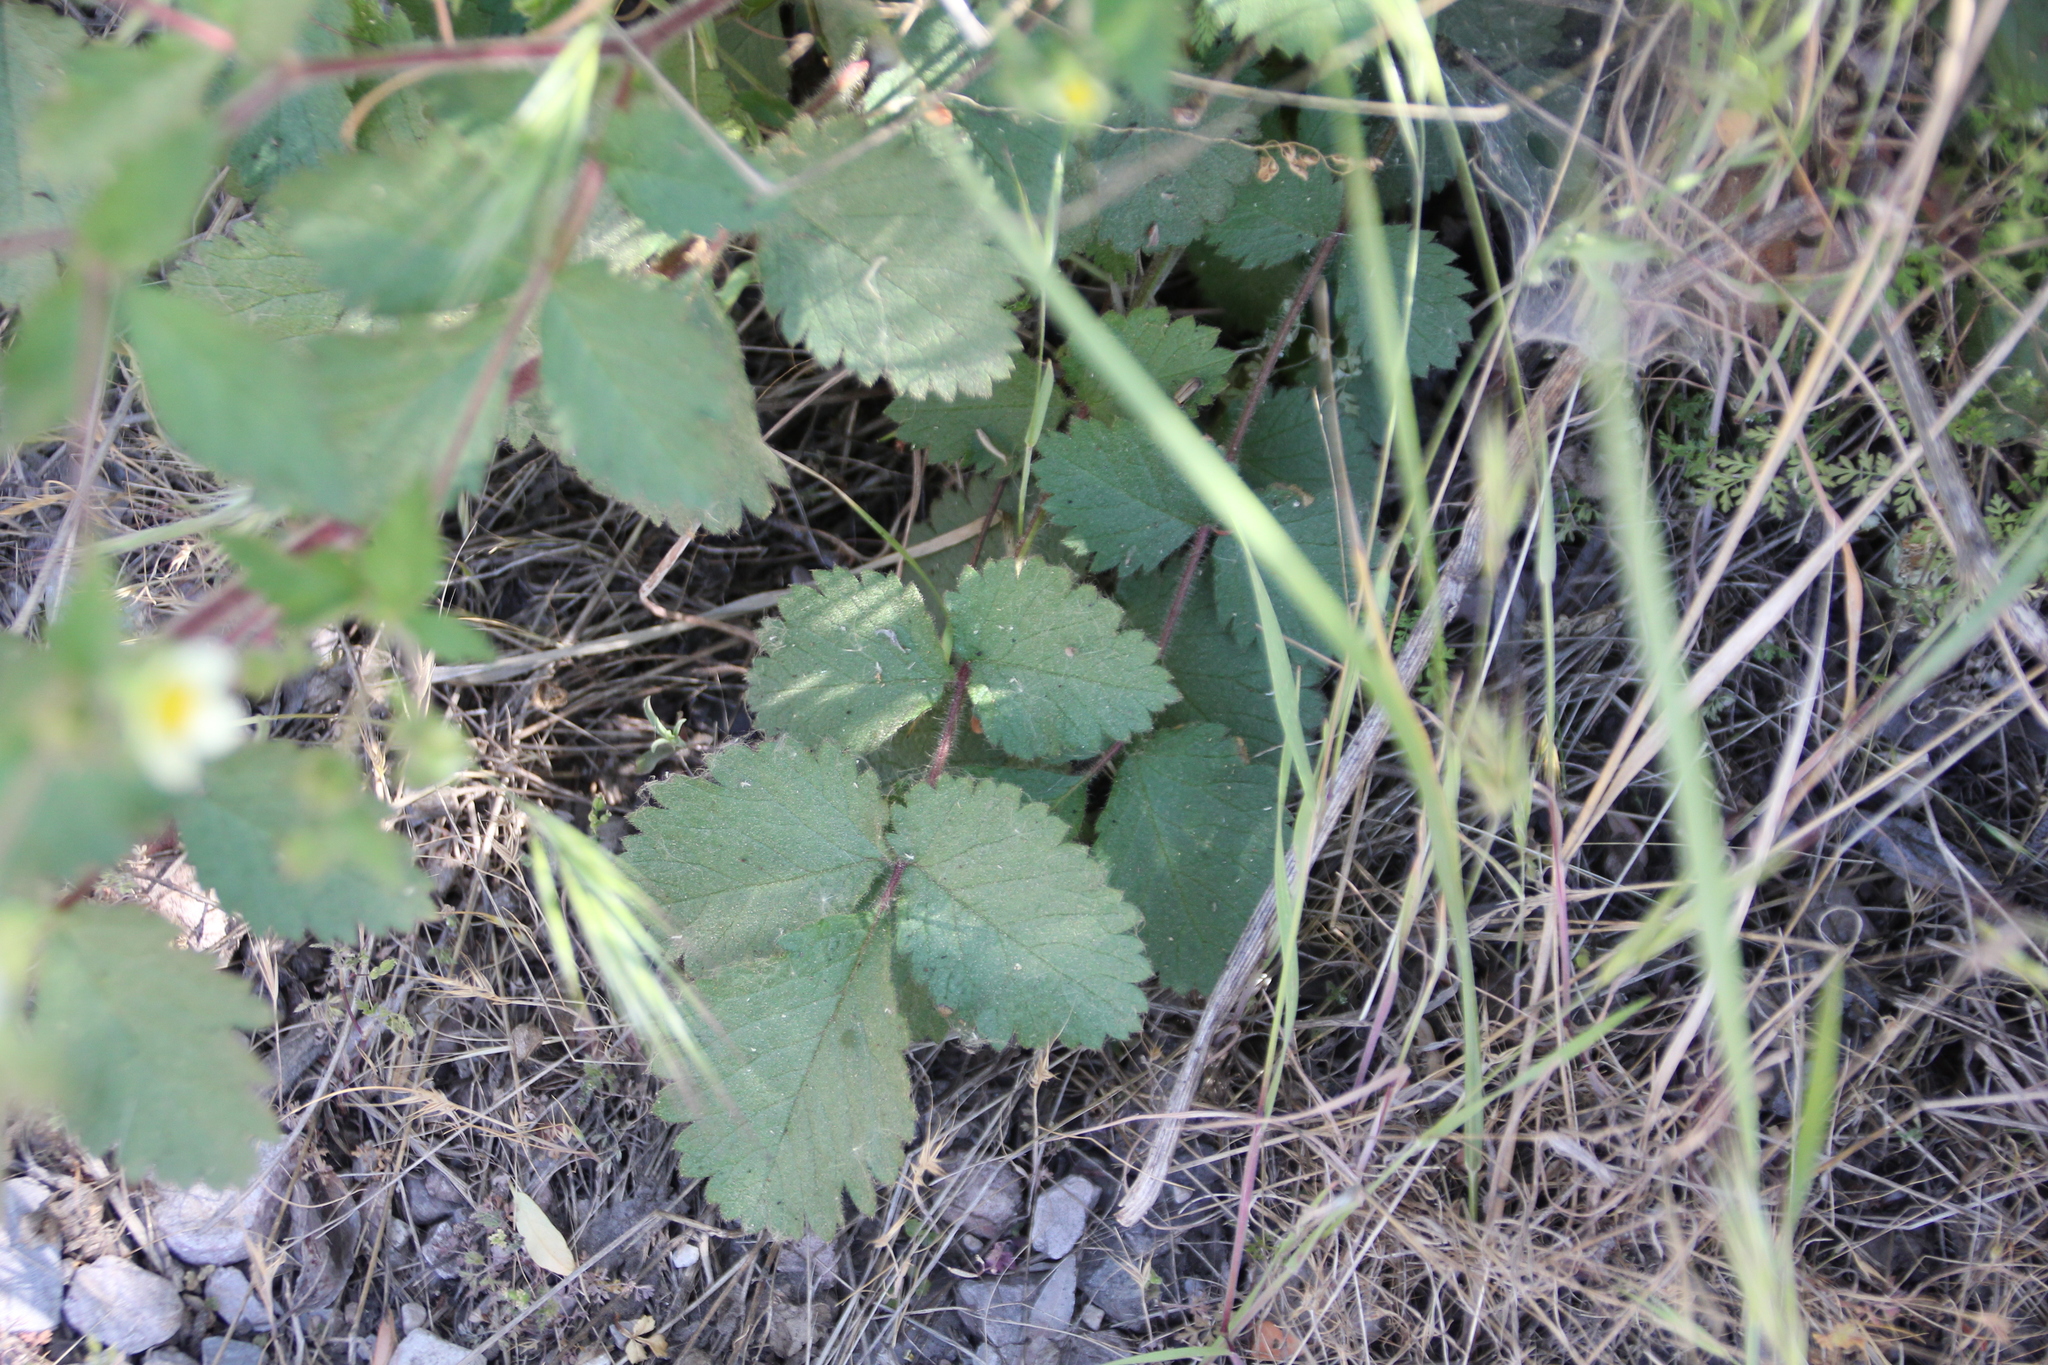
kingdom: Plantae
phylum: Tracheophyta
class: Magnoliopsida
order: Rosales
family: Rosaceae
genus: Drymocallis
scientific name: Drymocallis glandulosa
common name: Sticky cinquefoil
